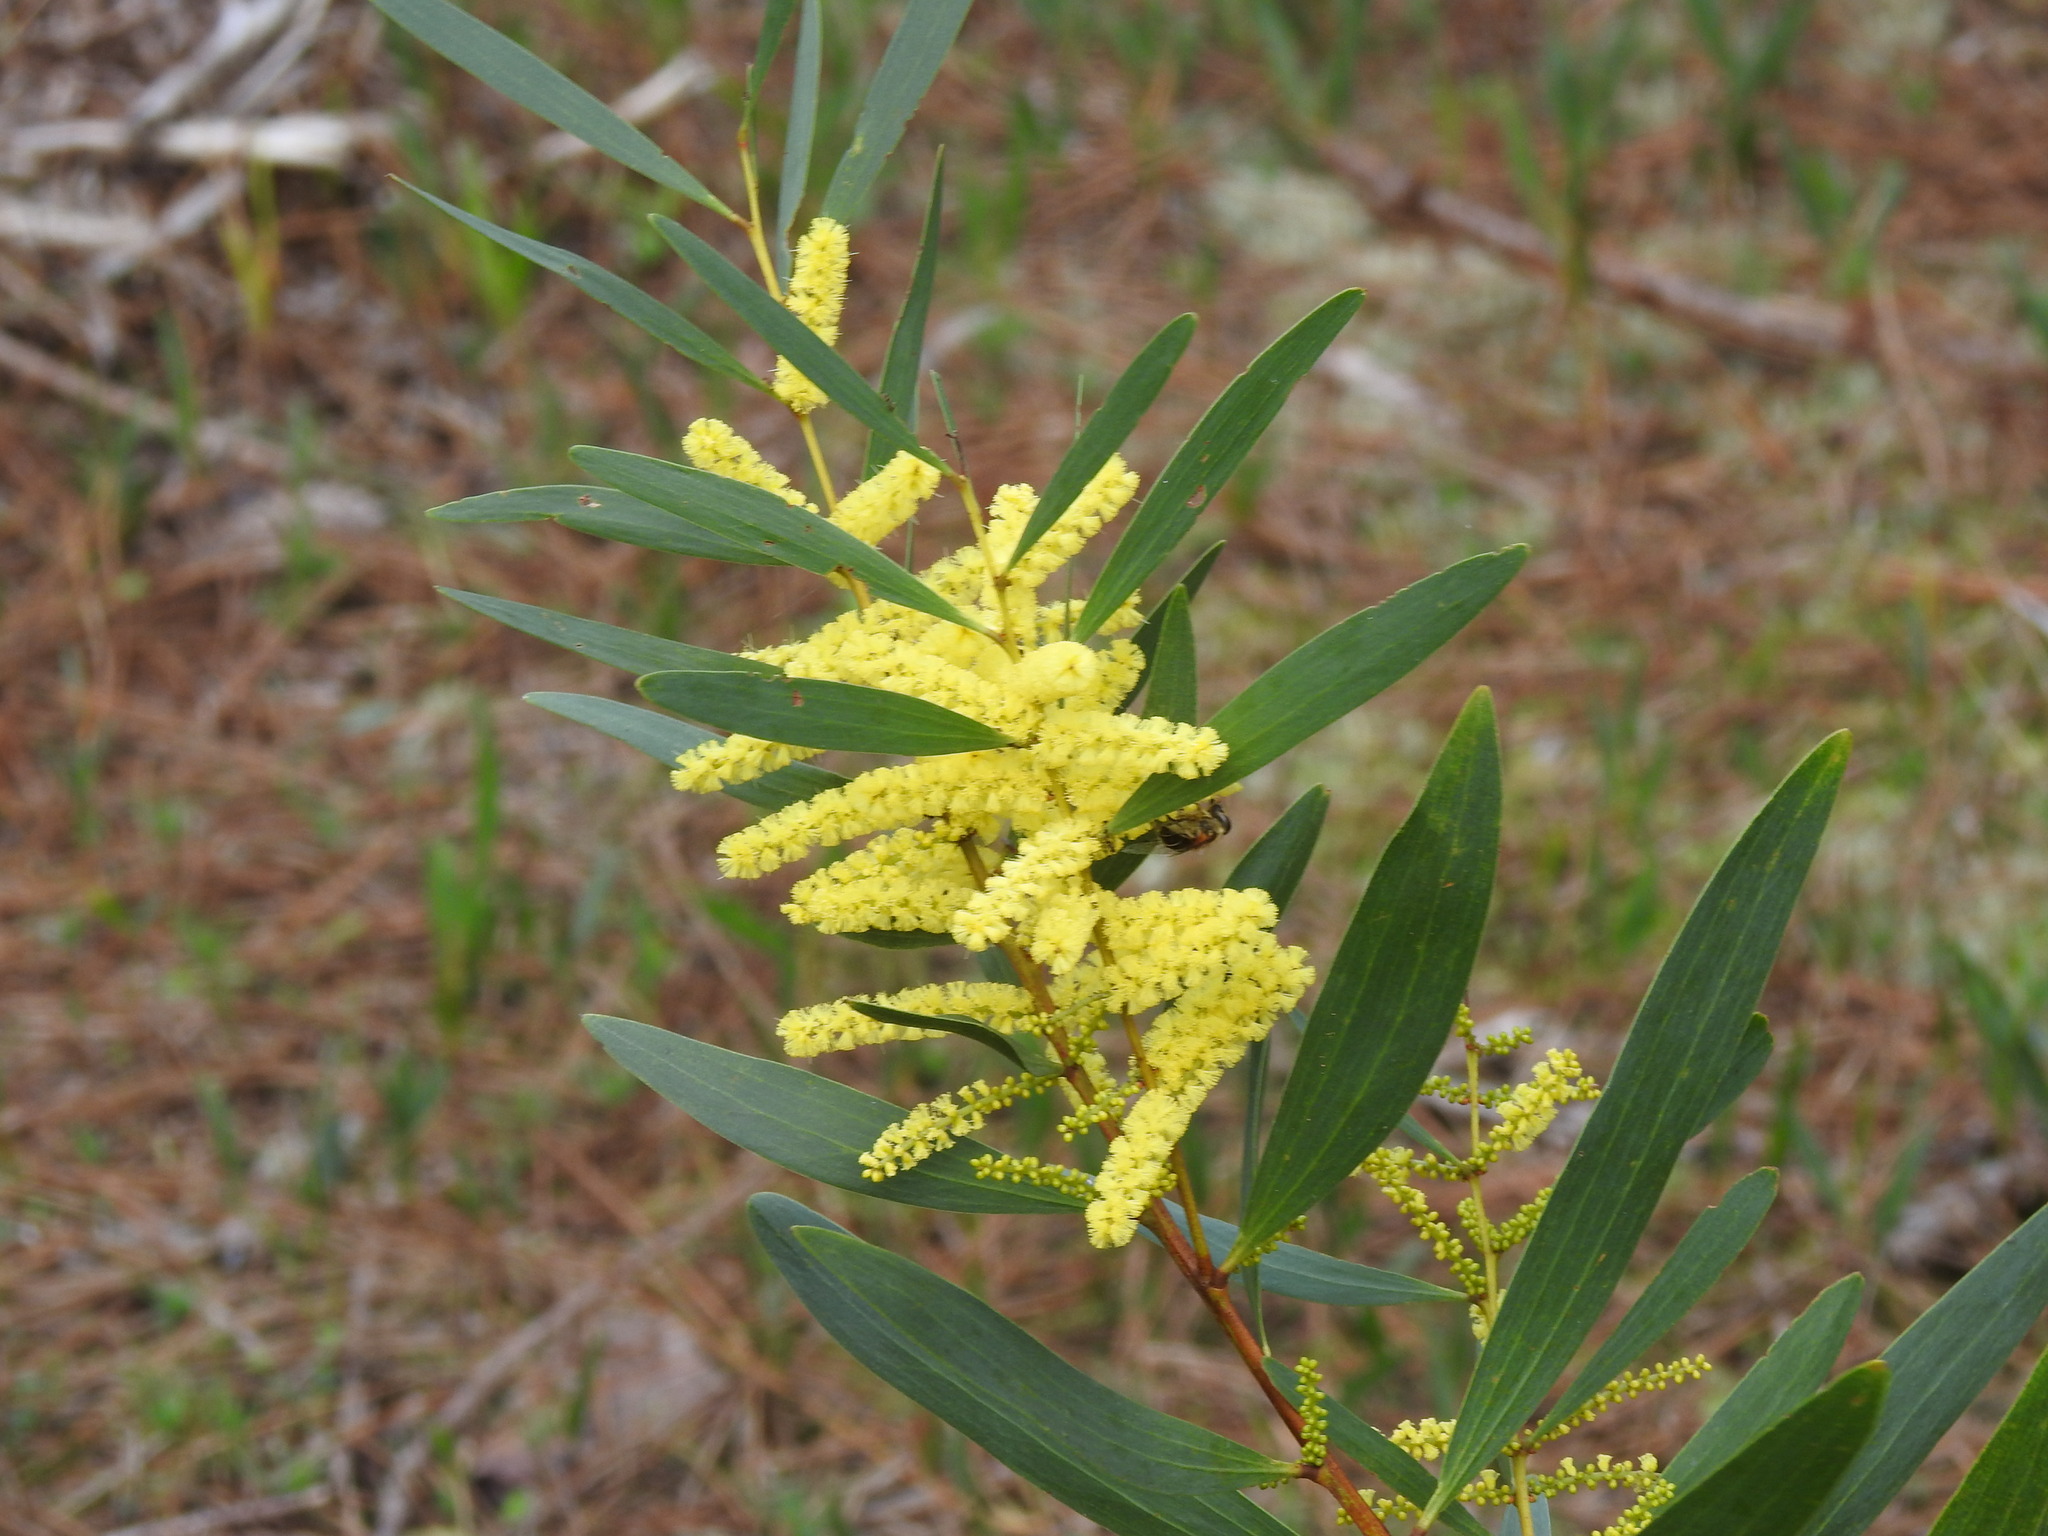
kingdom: Plantae
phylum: Tracheophyta
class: Magnoliopsida
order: Fabales
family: Fabaceae
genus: Acacia
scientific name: Acacia longifolia
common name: Sydney golden wattle
